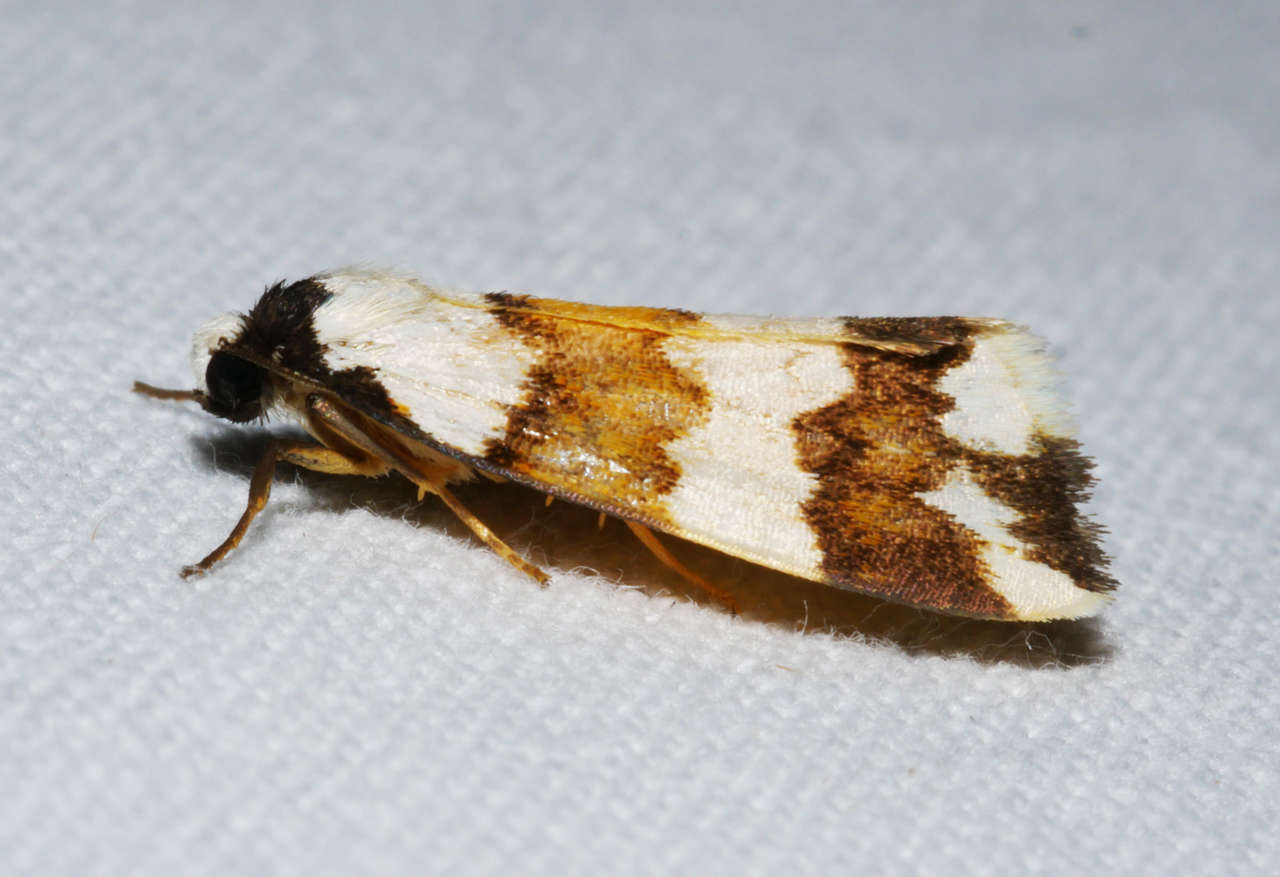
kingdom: Animalia
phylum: Arthropoda
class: Insecta
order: Lepidoptera
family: Erebidae
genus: Termessa
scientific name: Termessa gratiosa
